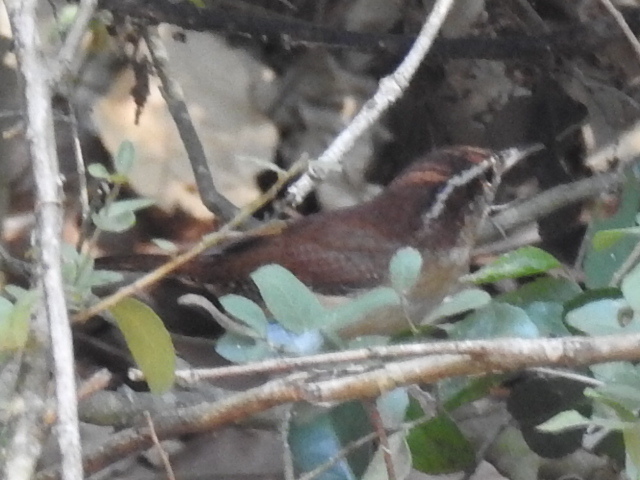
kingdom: Animalia
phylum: Chordata
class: Aves
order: Passeriformes
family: Troglodytidae
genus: Thryothorus
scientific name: Thryothorus ludovicianus
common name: Carolina wren
